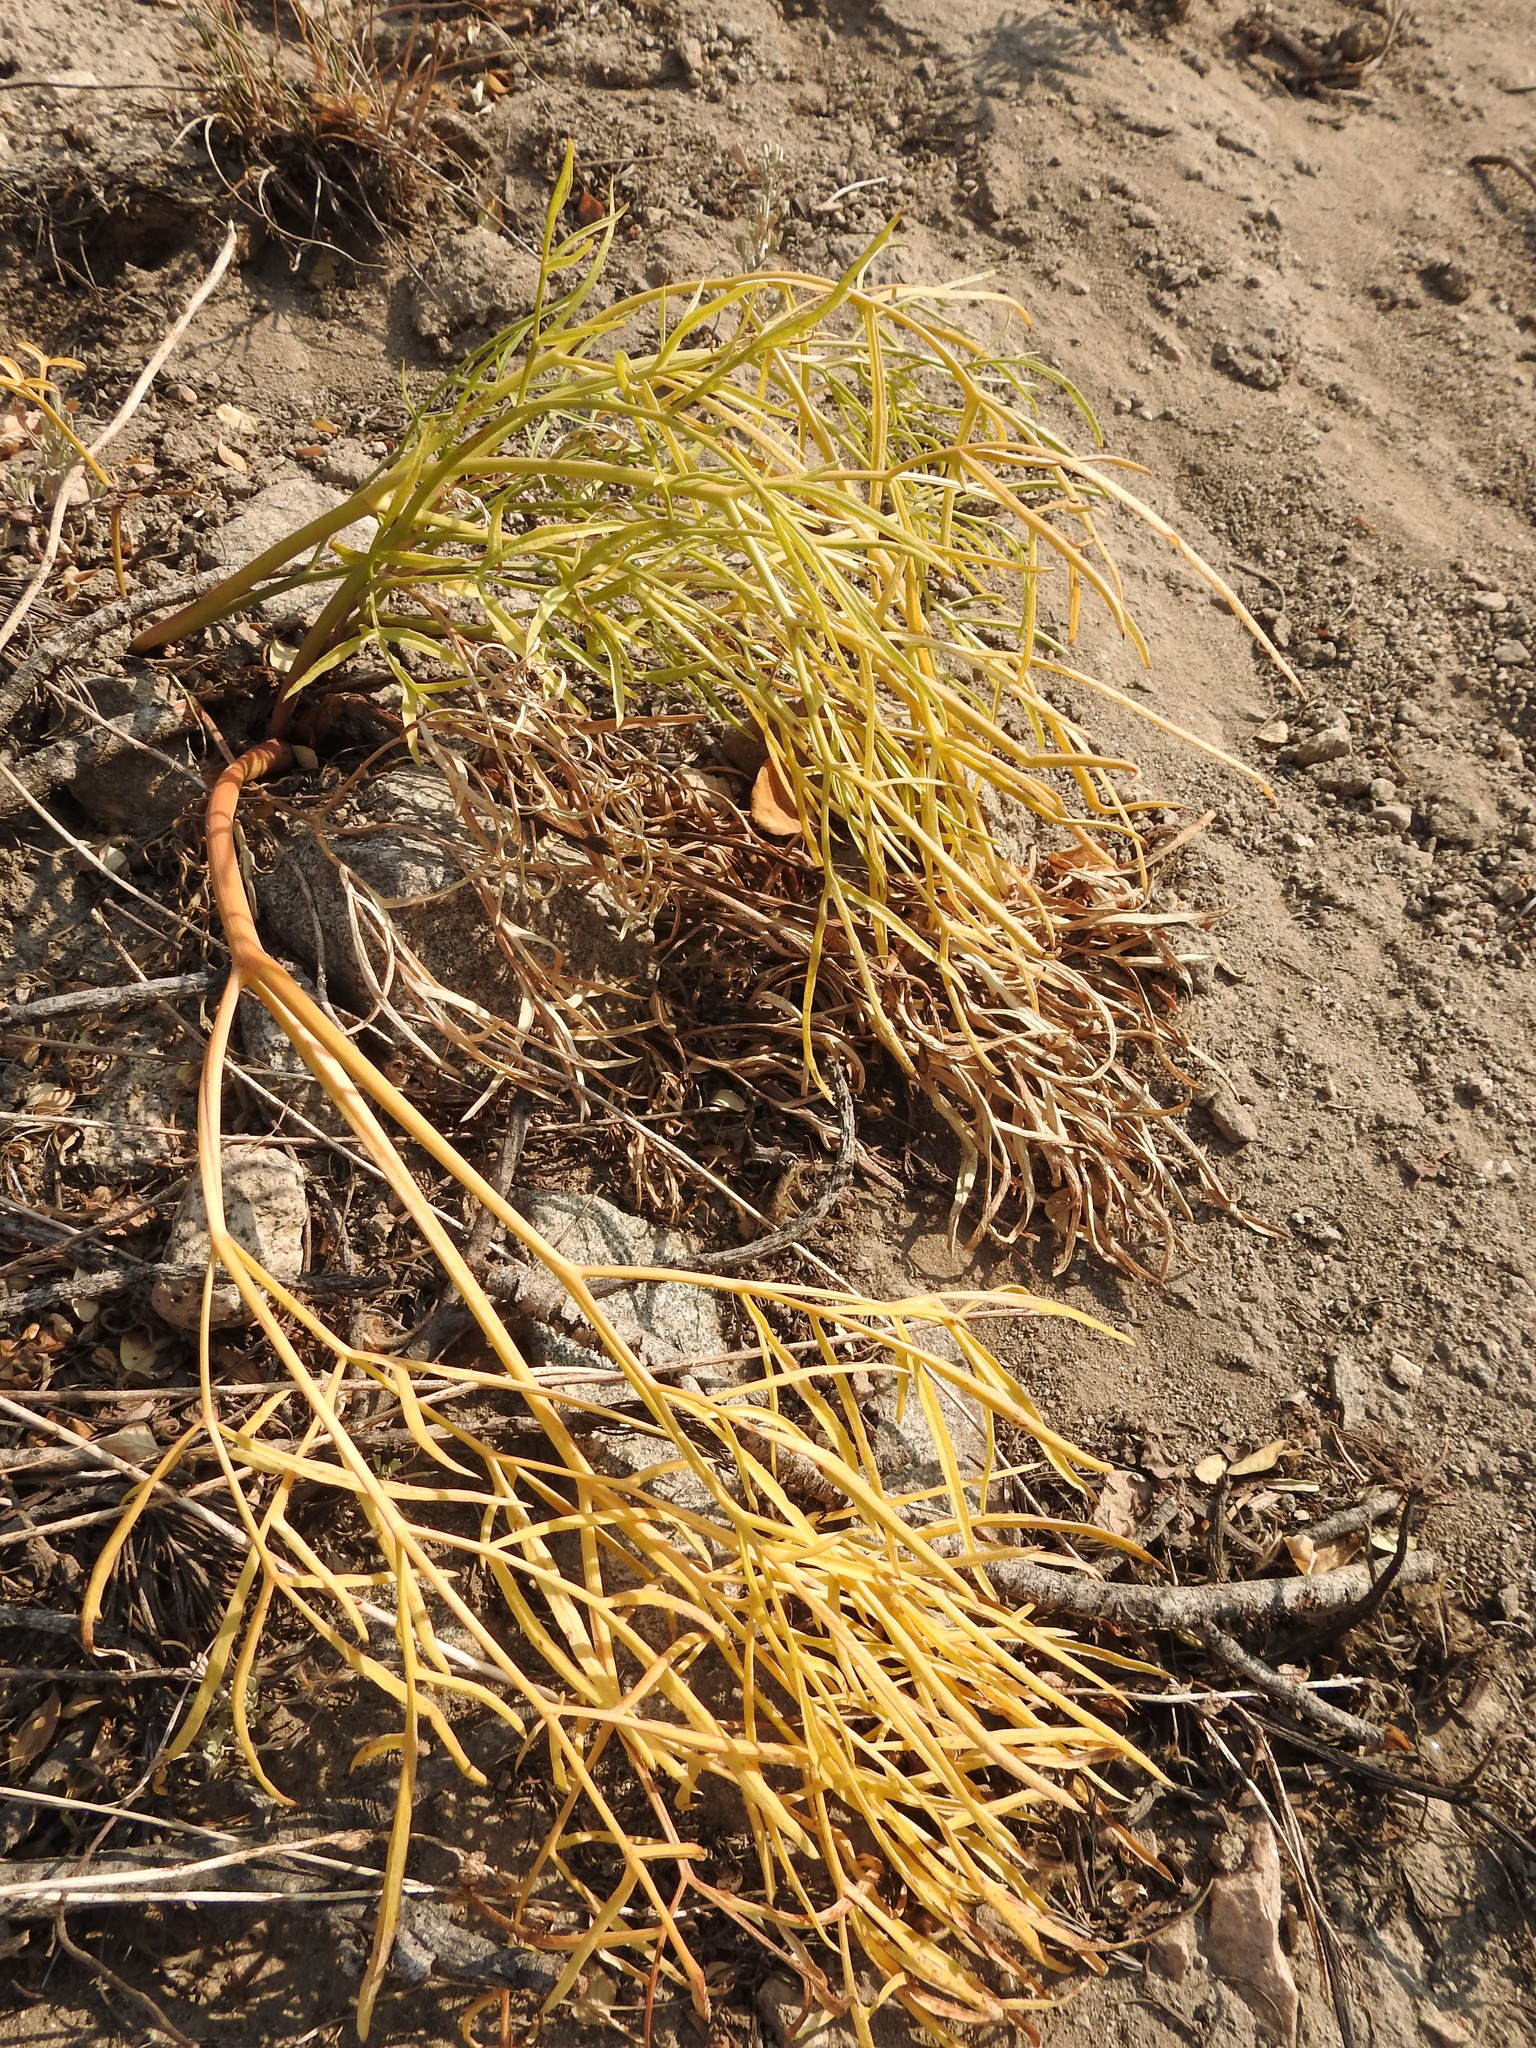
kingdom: Plantae
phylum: Tracheophyta
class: Magnoliopsida
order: Apiales
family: Apiaceae
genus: Angelica
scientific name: Angelica lineariloba
